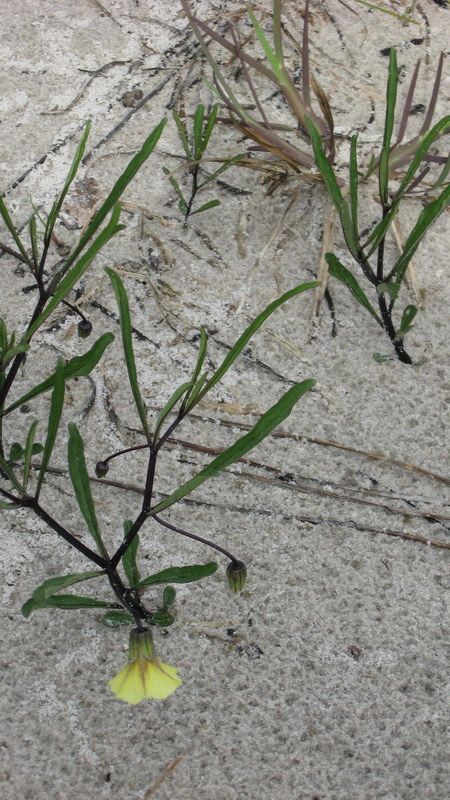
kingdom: Plantae
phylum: Tracheophyta
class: Magnoliopsida
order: Solanales
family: Solanaceae
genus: Physalis
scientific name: Physalis angustifolia
